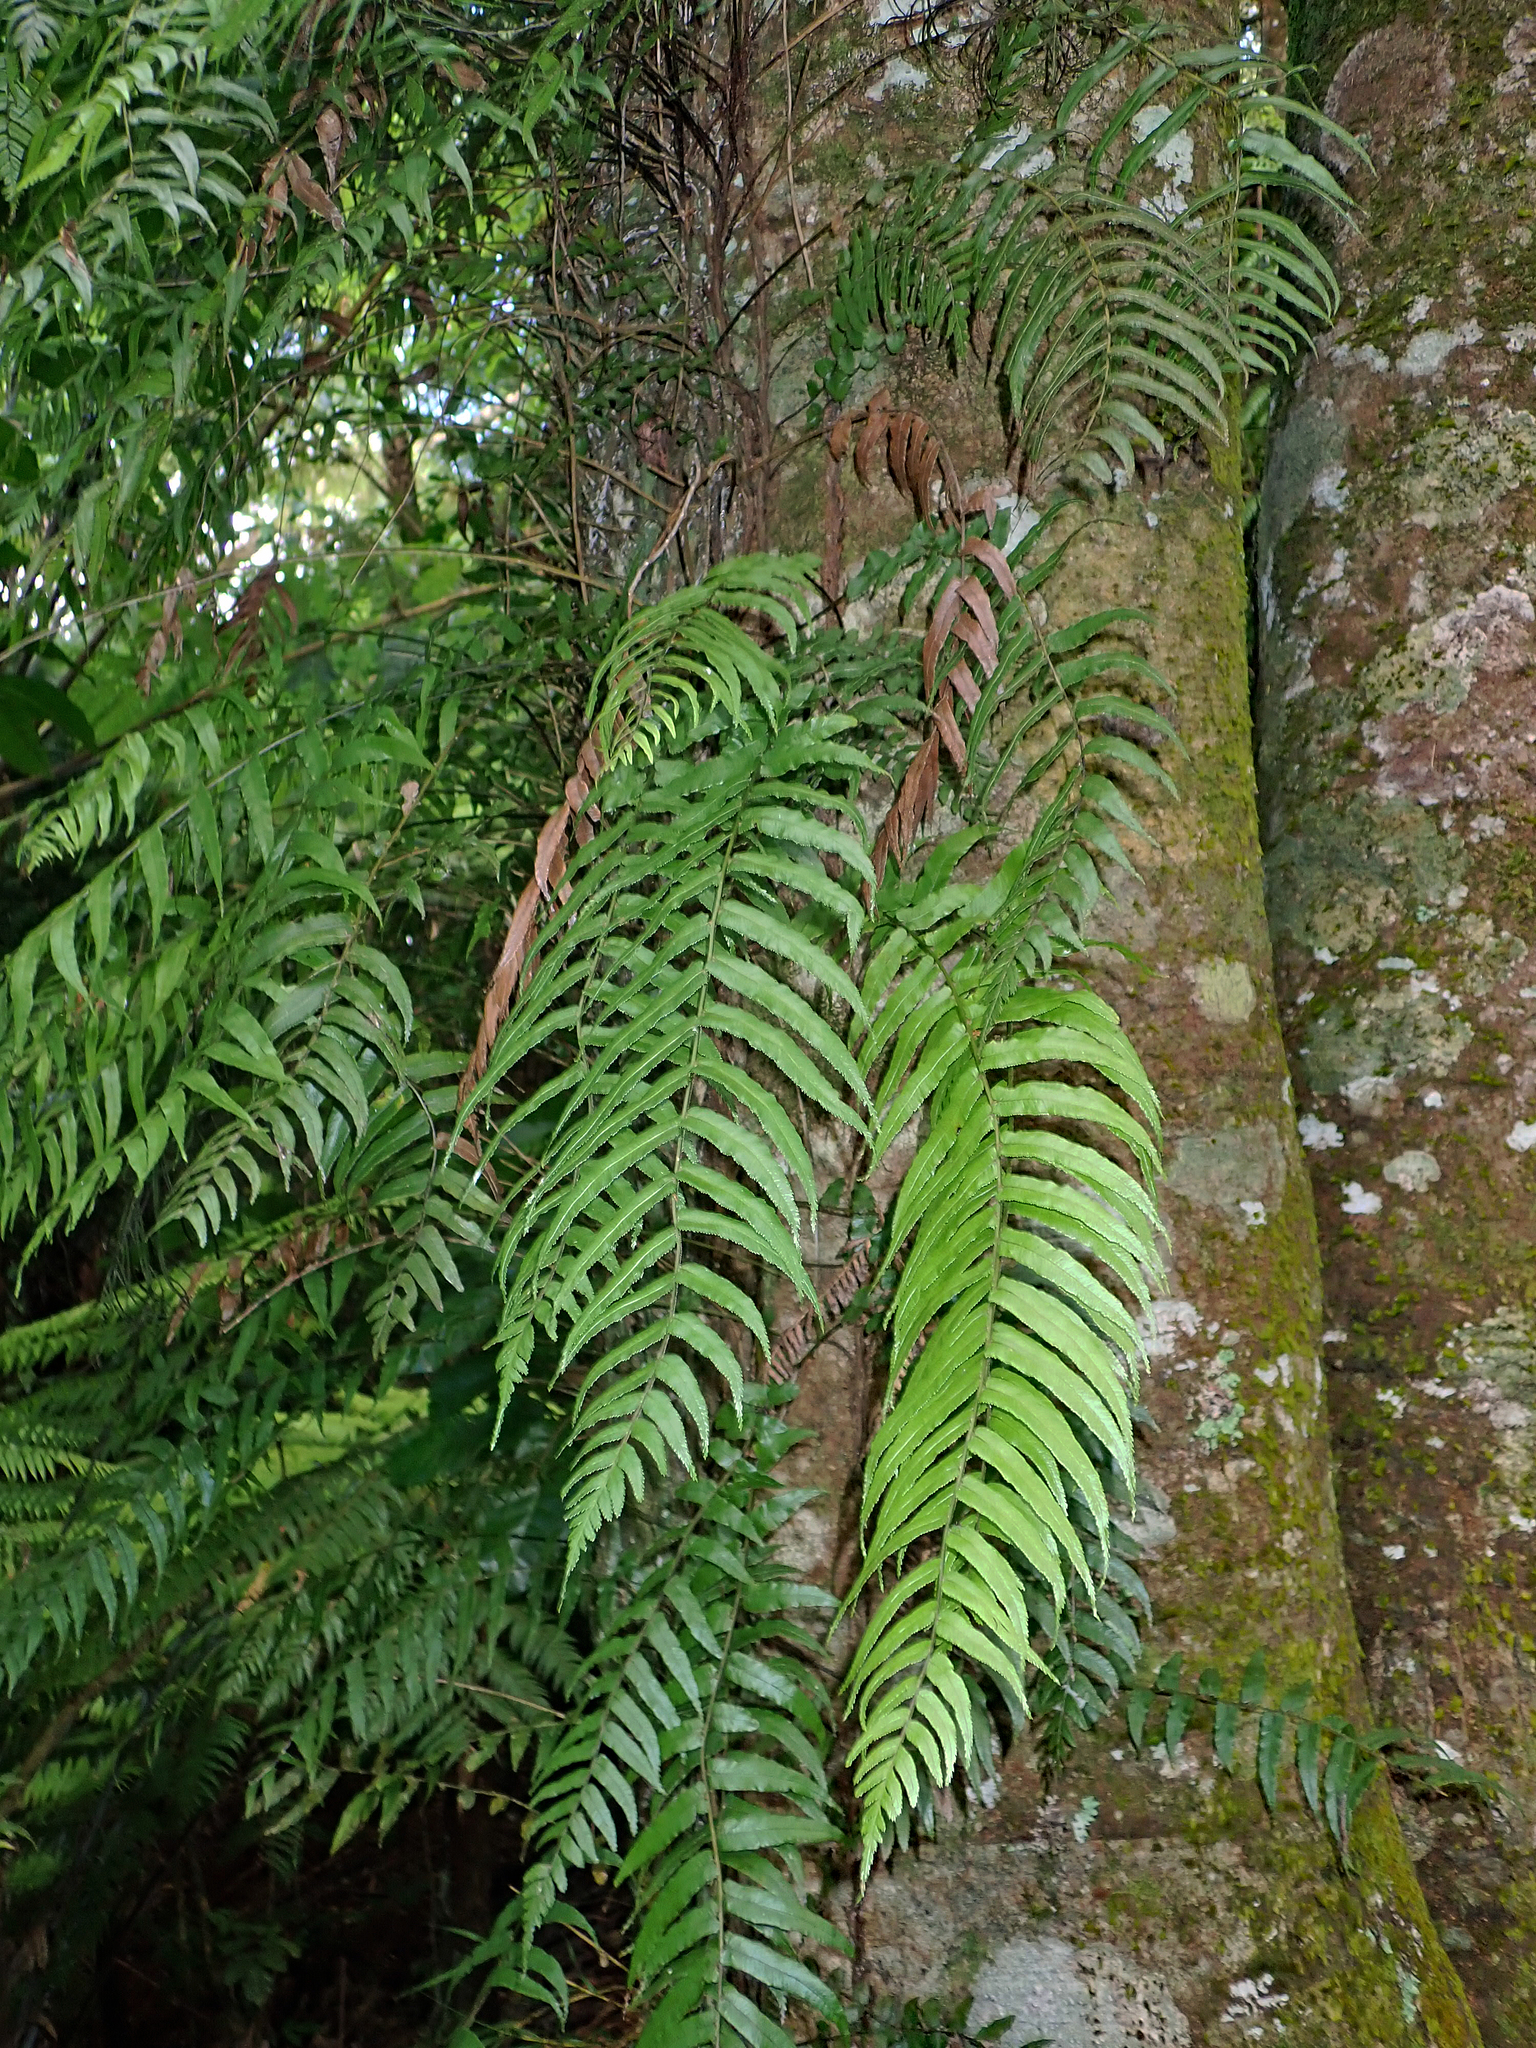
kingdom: Plantae
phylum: Tracheophyta
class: Polypodiopsida
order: Polypodiales
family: Blechnaceae
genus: Icarus
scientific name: Icarus filiformis
